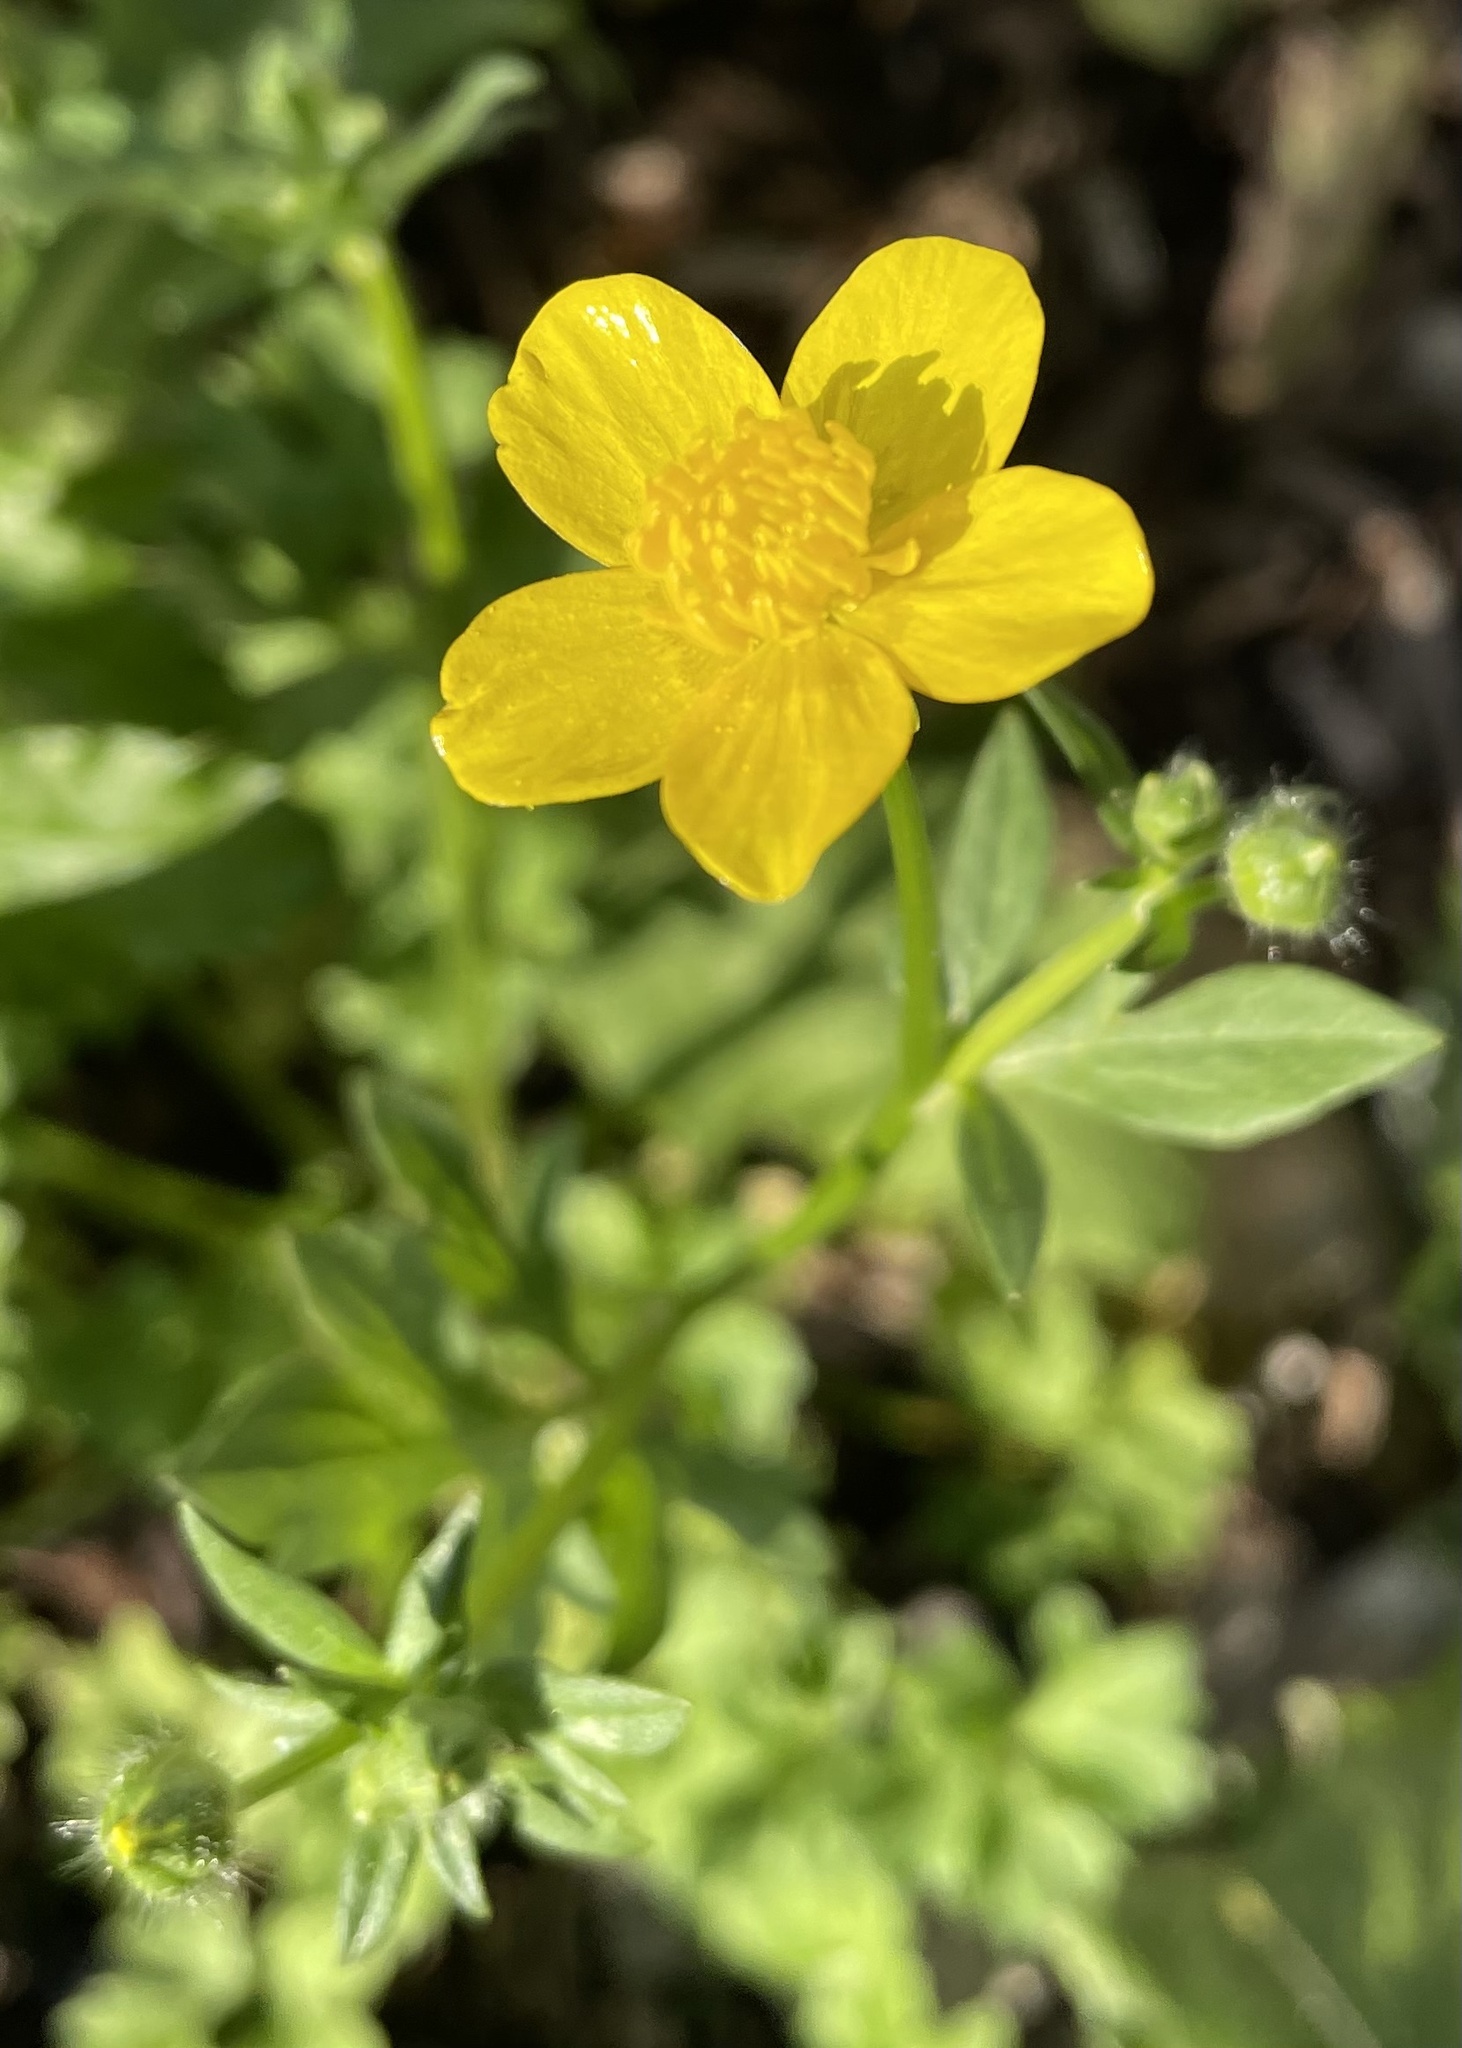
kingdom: Plantae
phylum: Tracheophyta
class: Magnoliopsida
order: Ranunculales
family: Ranunculaceae
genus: Ranunculus
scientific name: Ranunculus sardous
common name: Hairy buttercup
